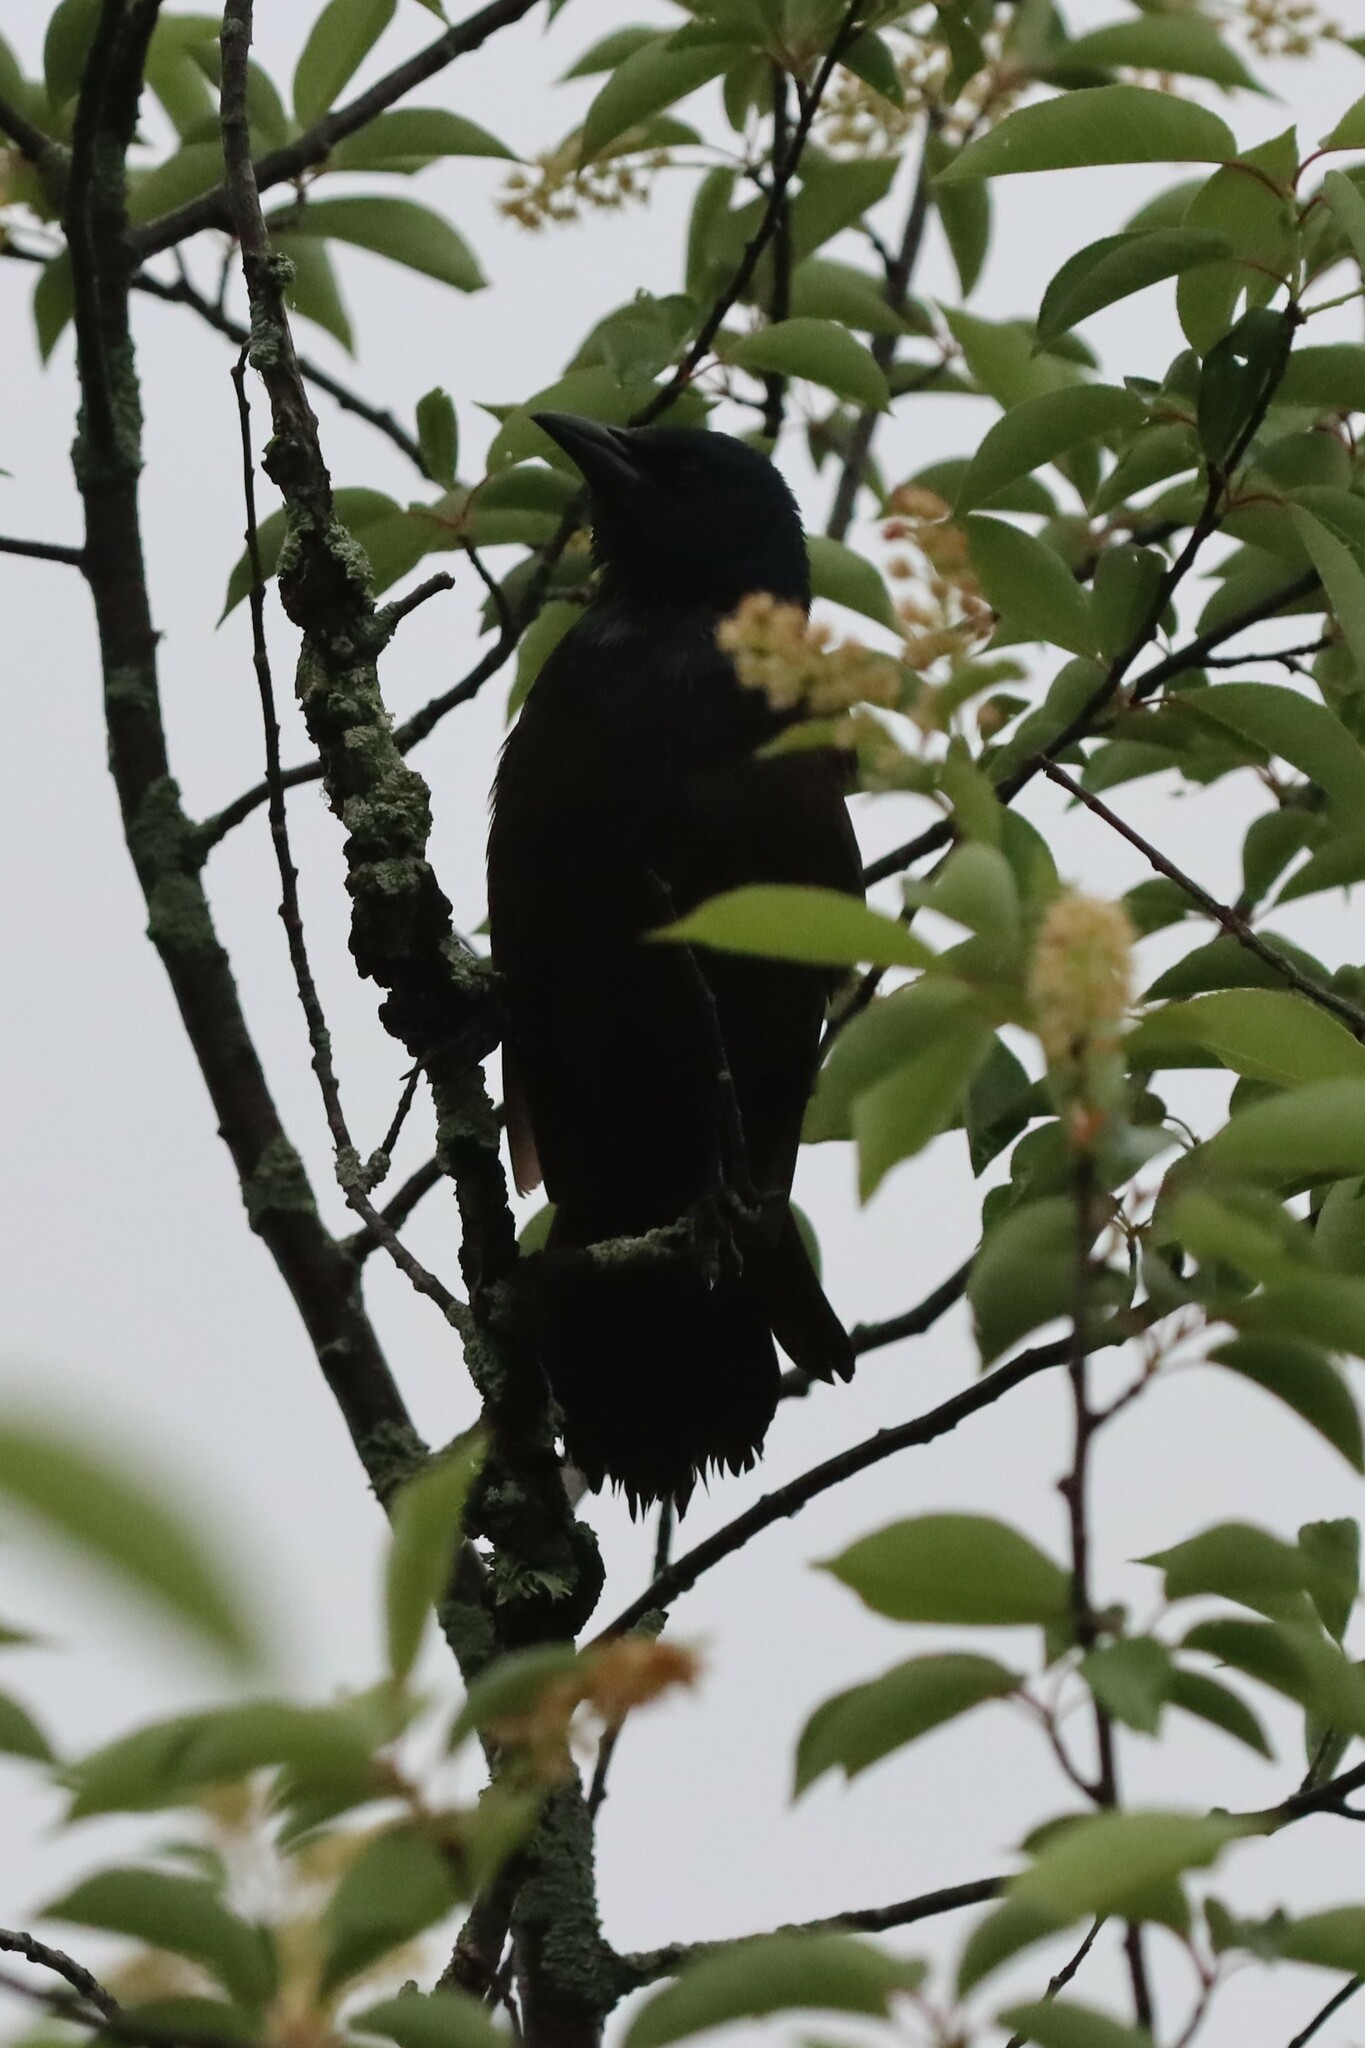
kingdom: Animalia
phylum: Chordata
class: Aves
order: Passeriformes
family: Corvidae
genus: Corvus
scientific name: Corvus brachyrhynchos
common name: American crow
